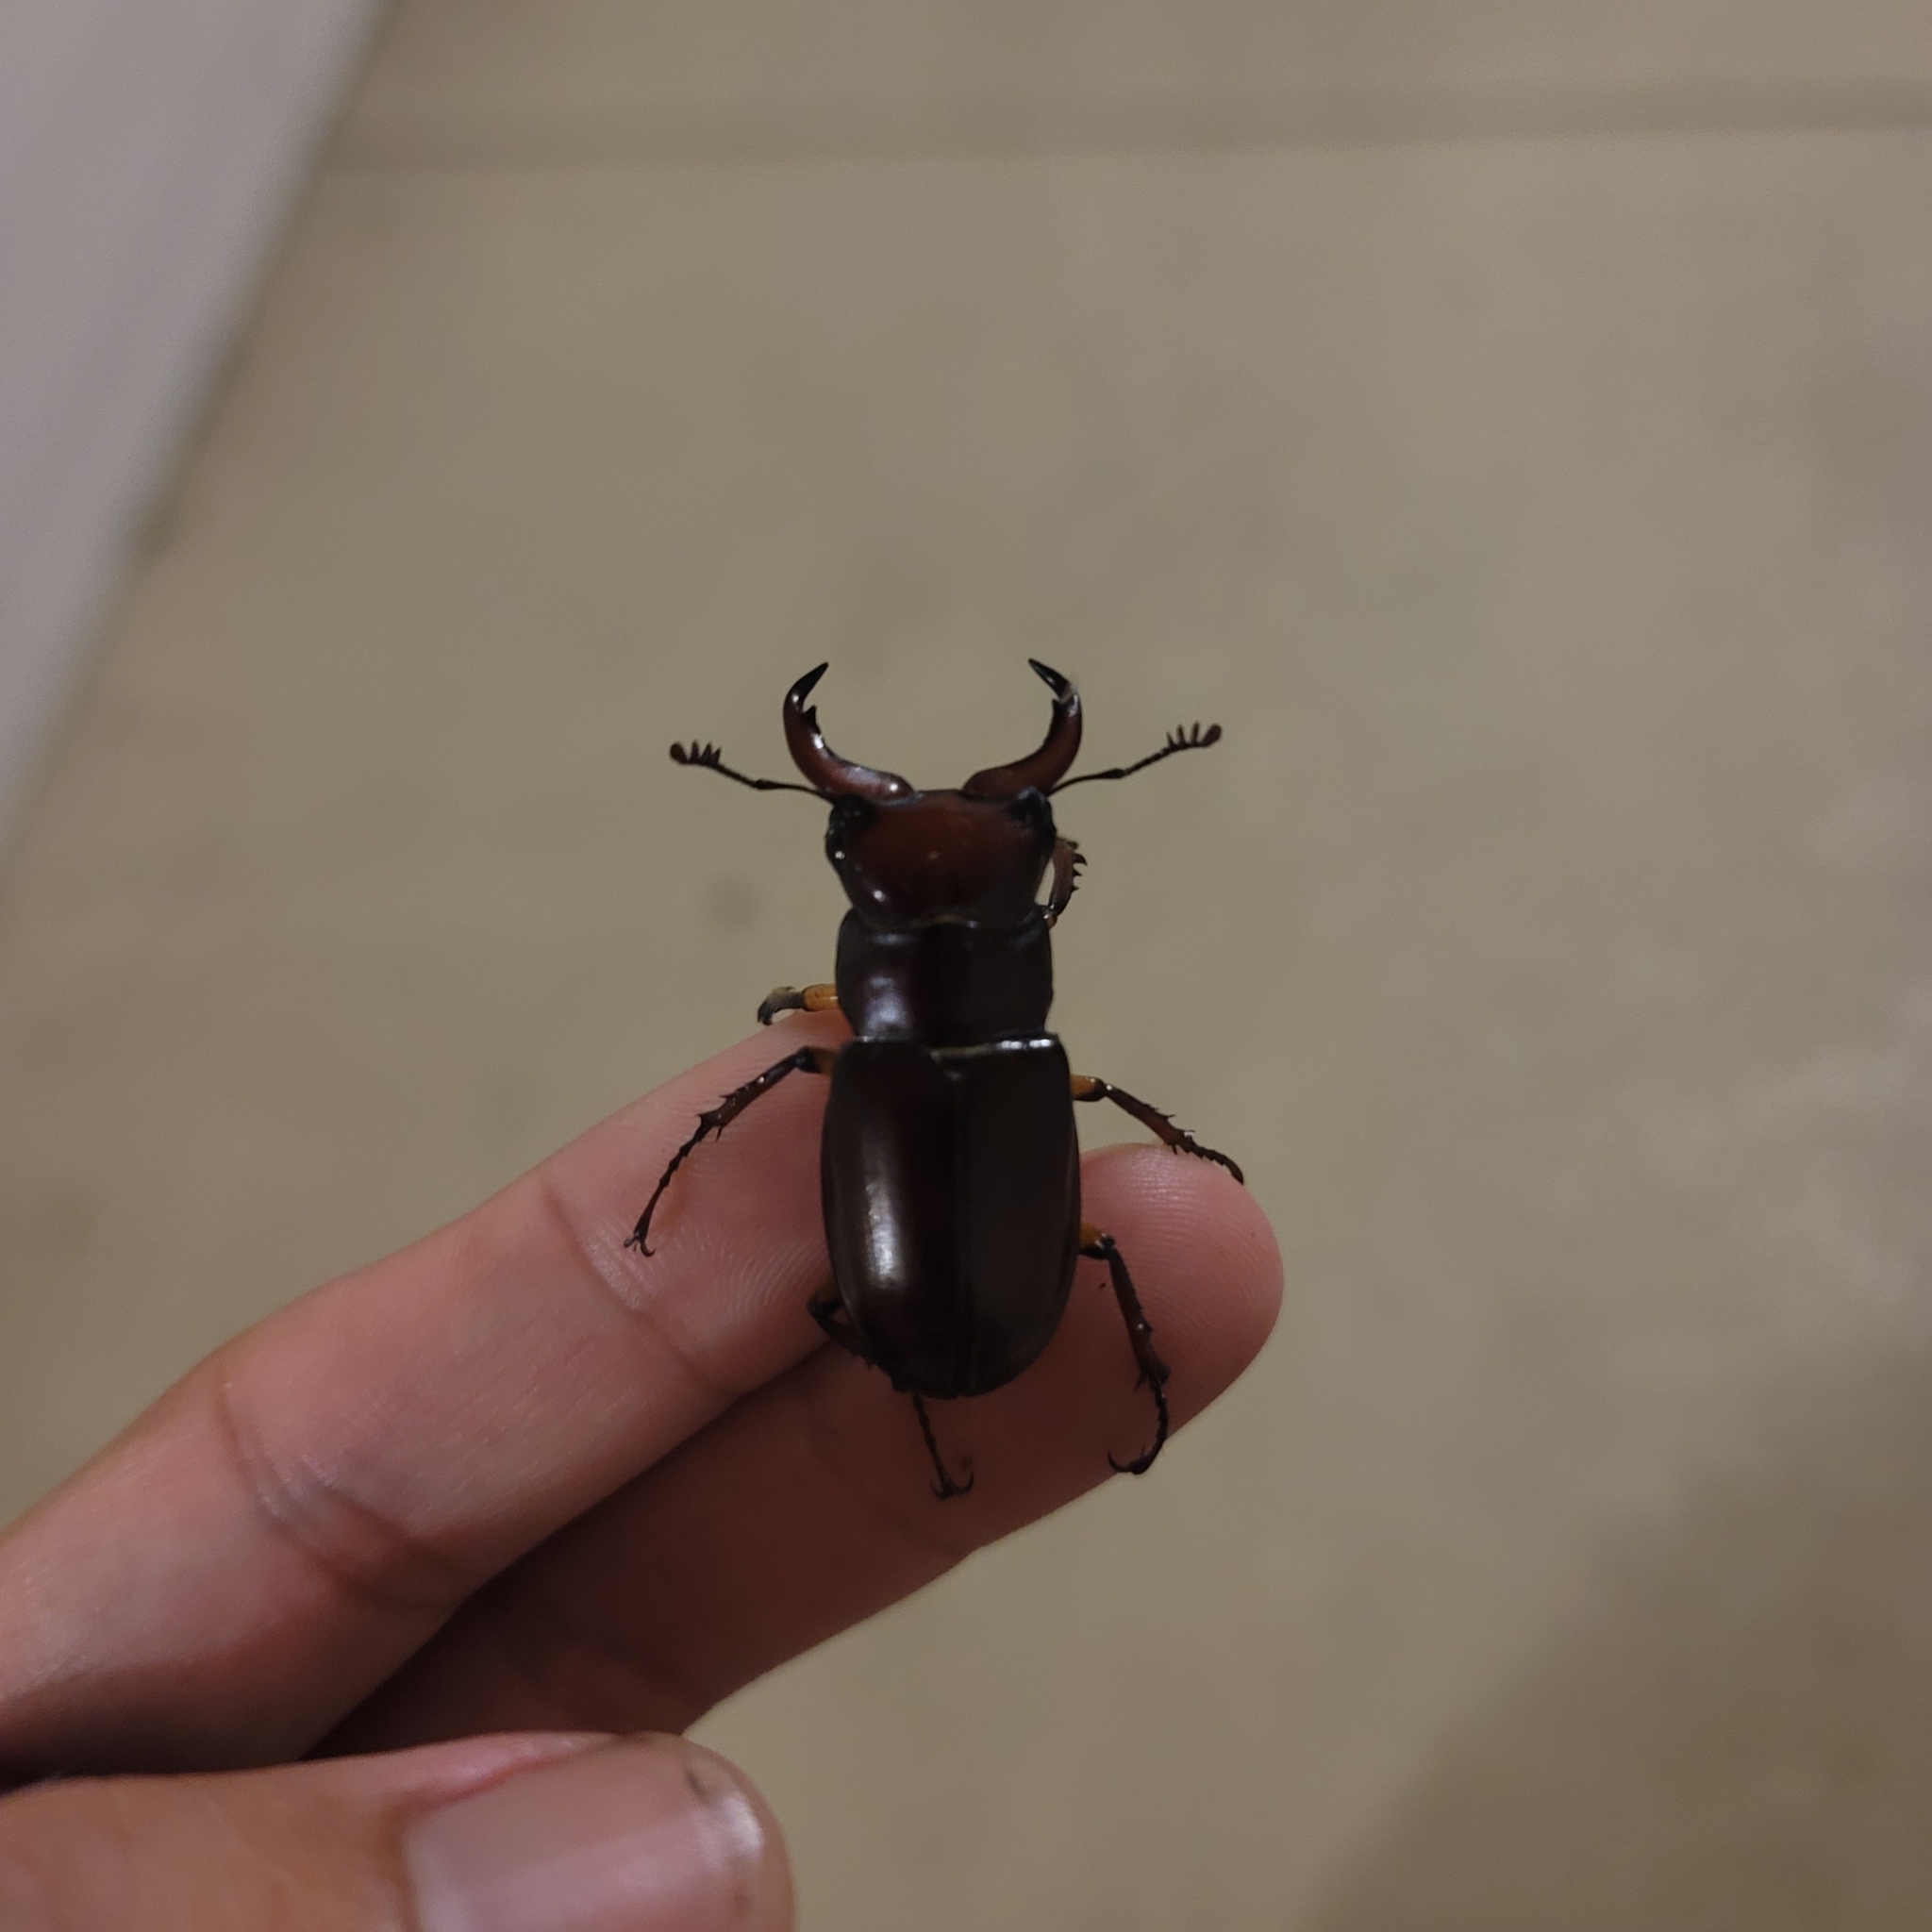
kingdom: Animalia
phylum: Arthropoda
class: Insecta
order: Coleoptera
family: Lucanidae
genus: Lucanus
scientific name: Lucanus capreolus
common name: Stag beetle
